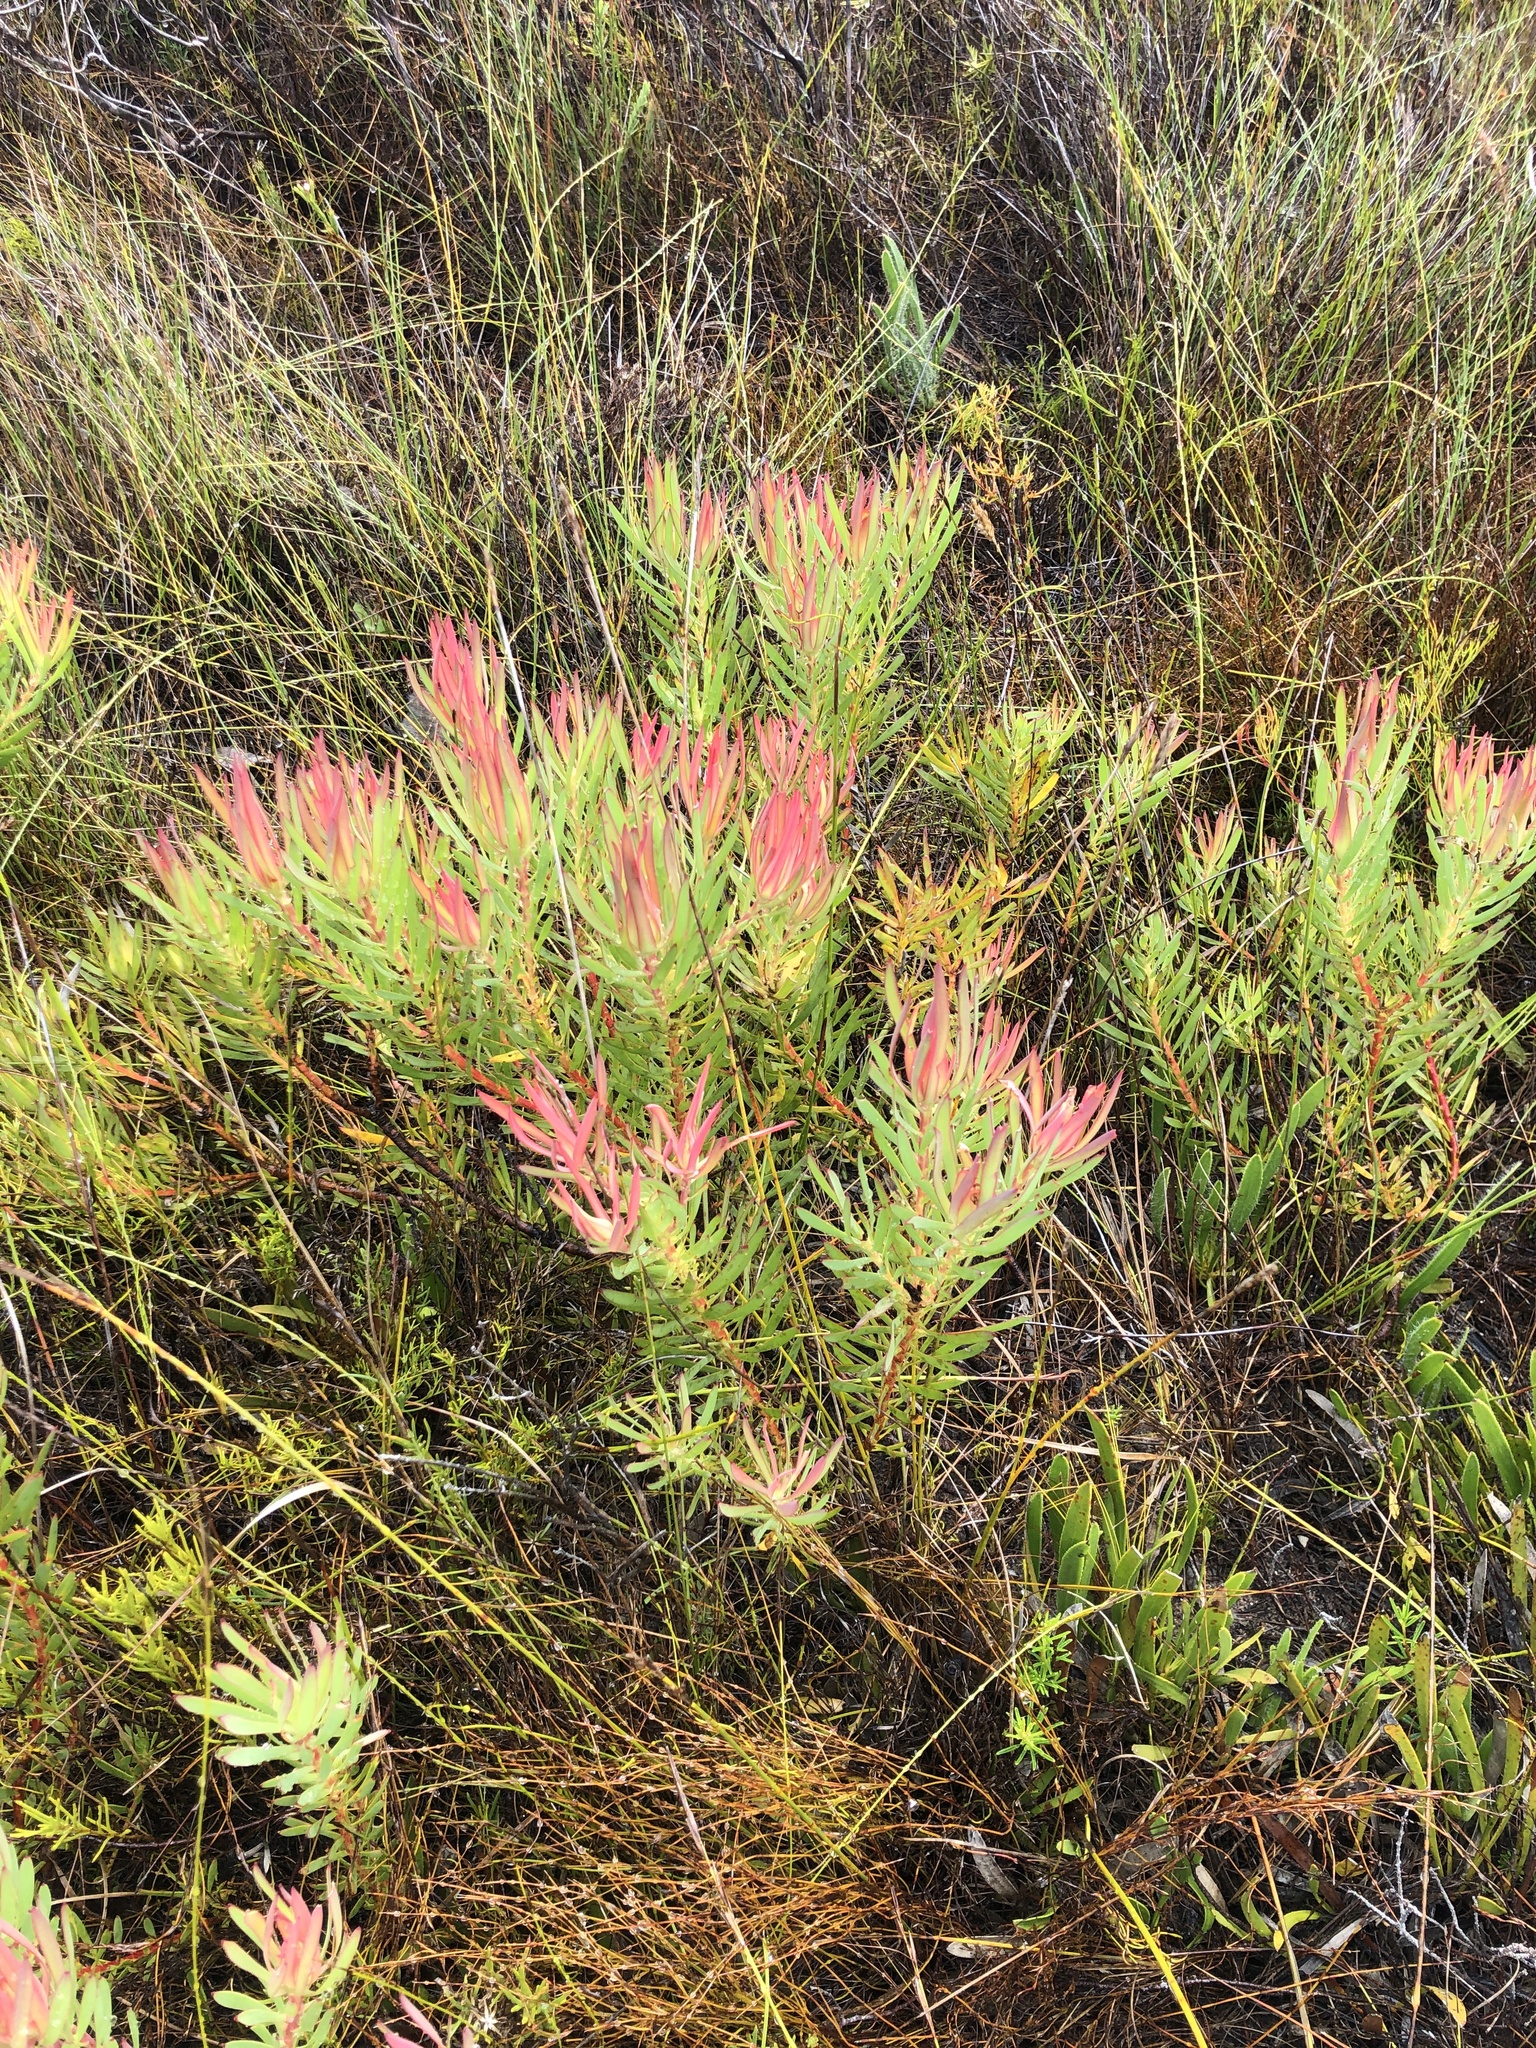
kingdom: Plantae
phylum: Tracheophyta
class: Magnoliopsida
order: Proteales
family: Proteaceae
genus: Leucadendron
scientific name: Leucadendron salignum
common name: Common sunshine conebush
